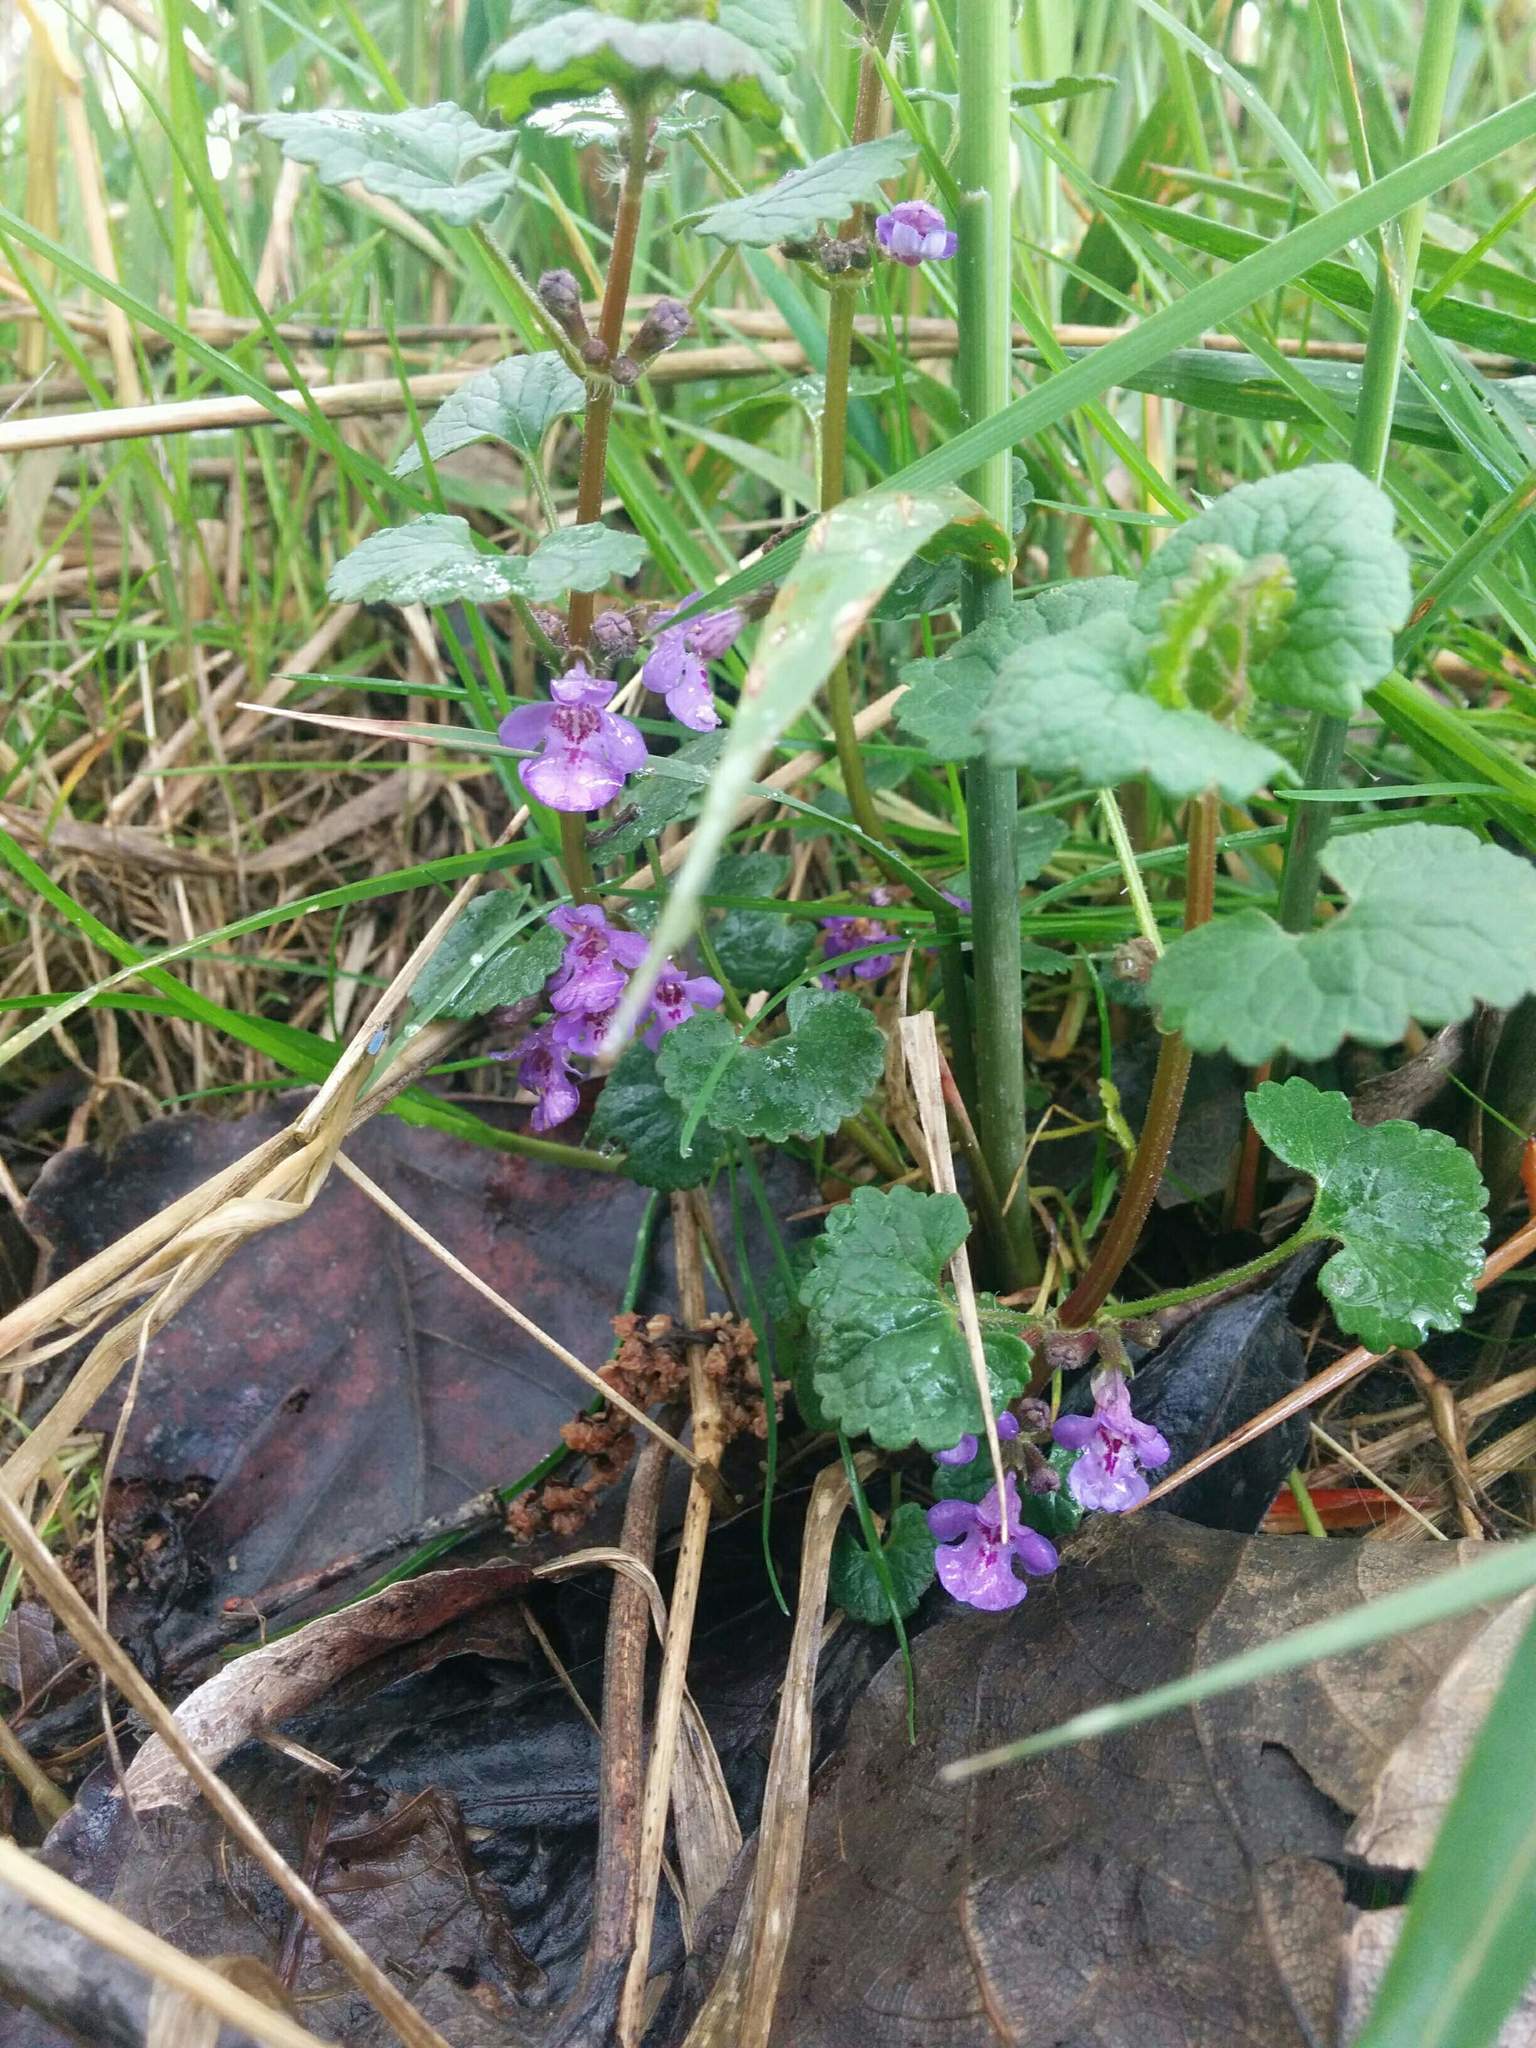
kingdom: Plantae
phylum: Tracheophyta
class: Magnoliopsida
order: Lamiales
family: Lamiaceae
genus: Glechoma
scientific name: Glechoma hederacea
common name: Ground ivy
